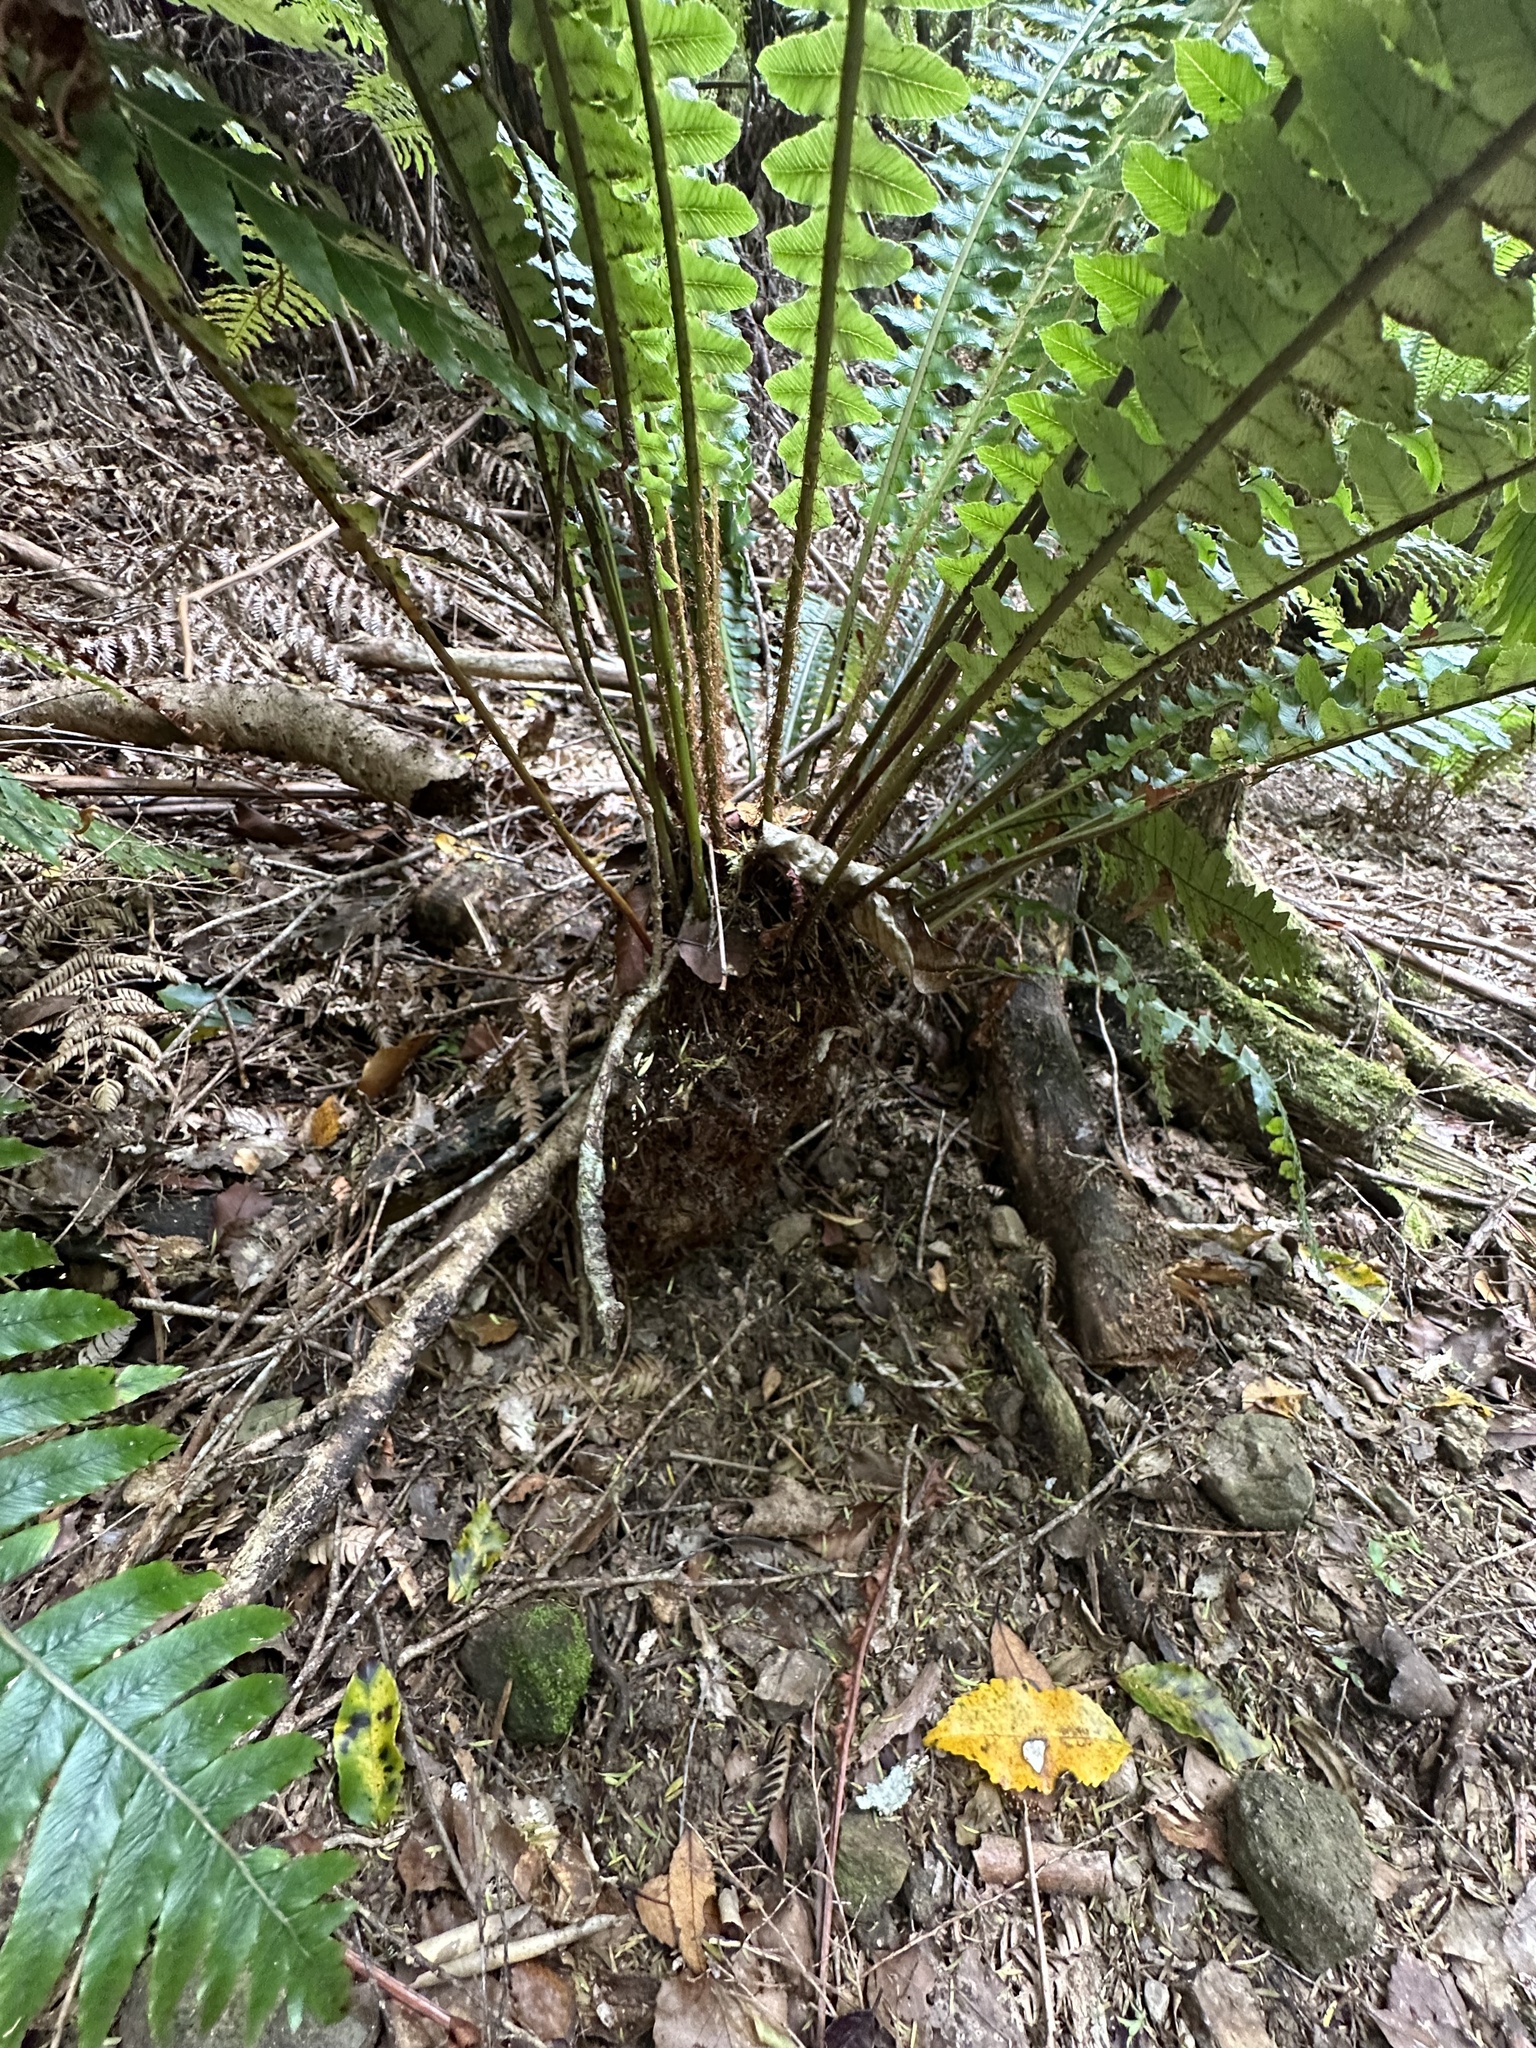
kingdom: Plantae
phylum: Tracheophyta
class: Polypodiopsida
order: Polypodiales
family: Blechnaceae
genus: Lomaria
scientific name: Lomaria discolor
